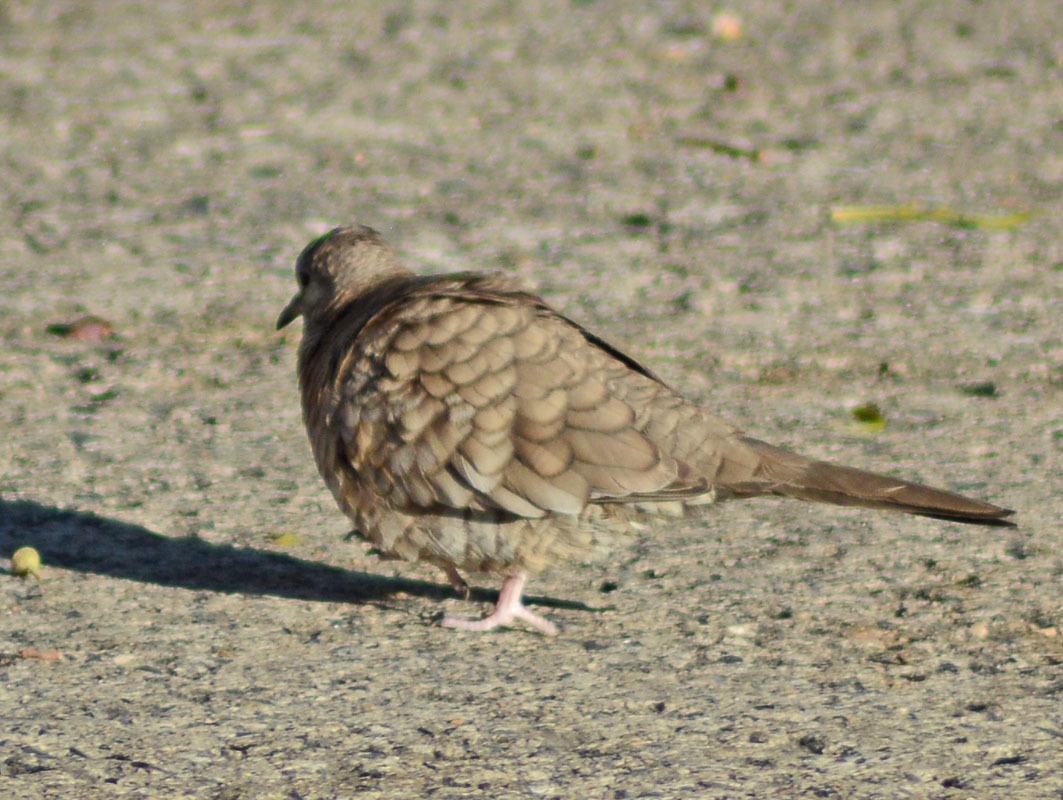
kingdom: Animalia
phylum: Chordata
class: Aves
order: Columbiformes
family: Columbidae
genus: Columbina
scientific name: Columbina inca
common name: Inca dove
